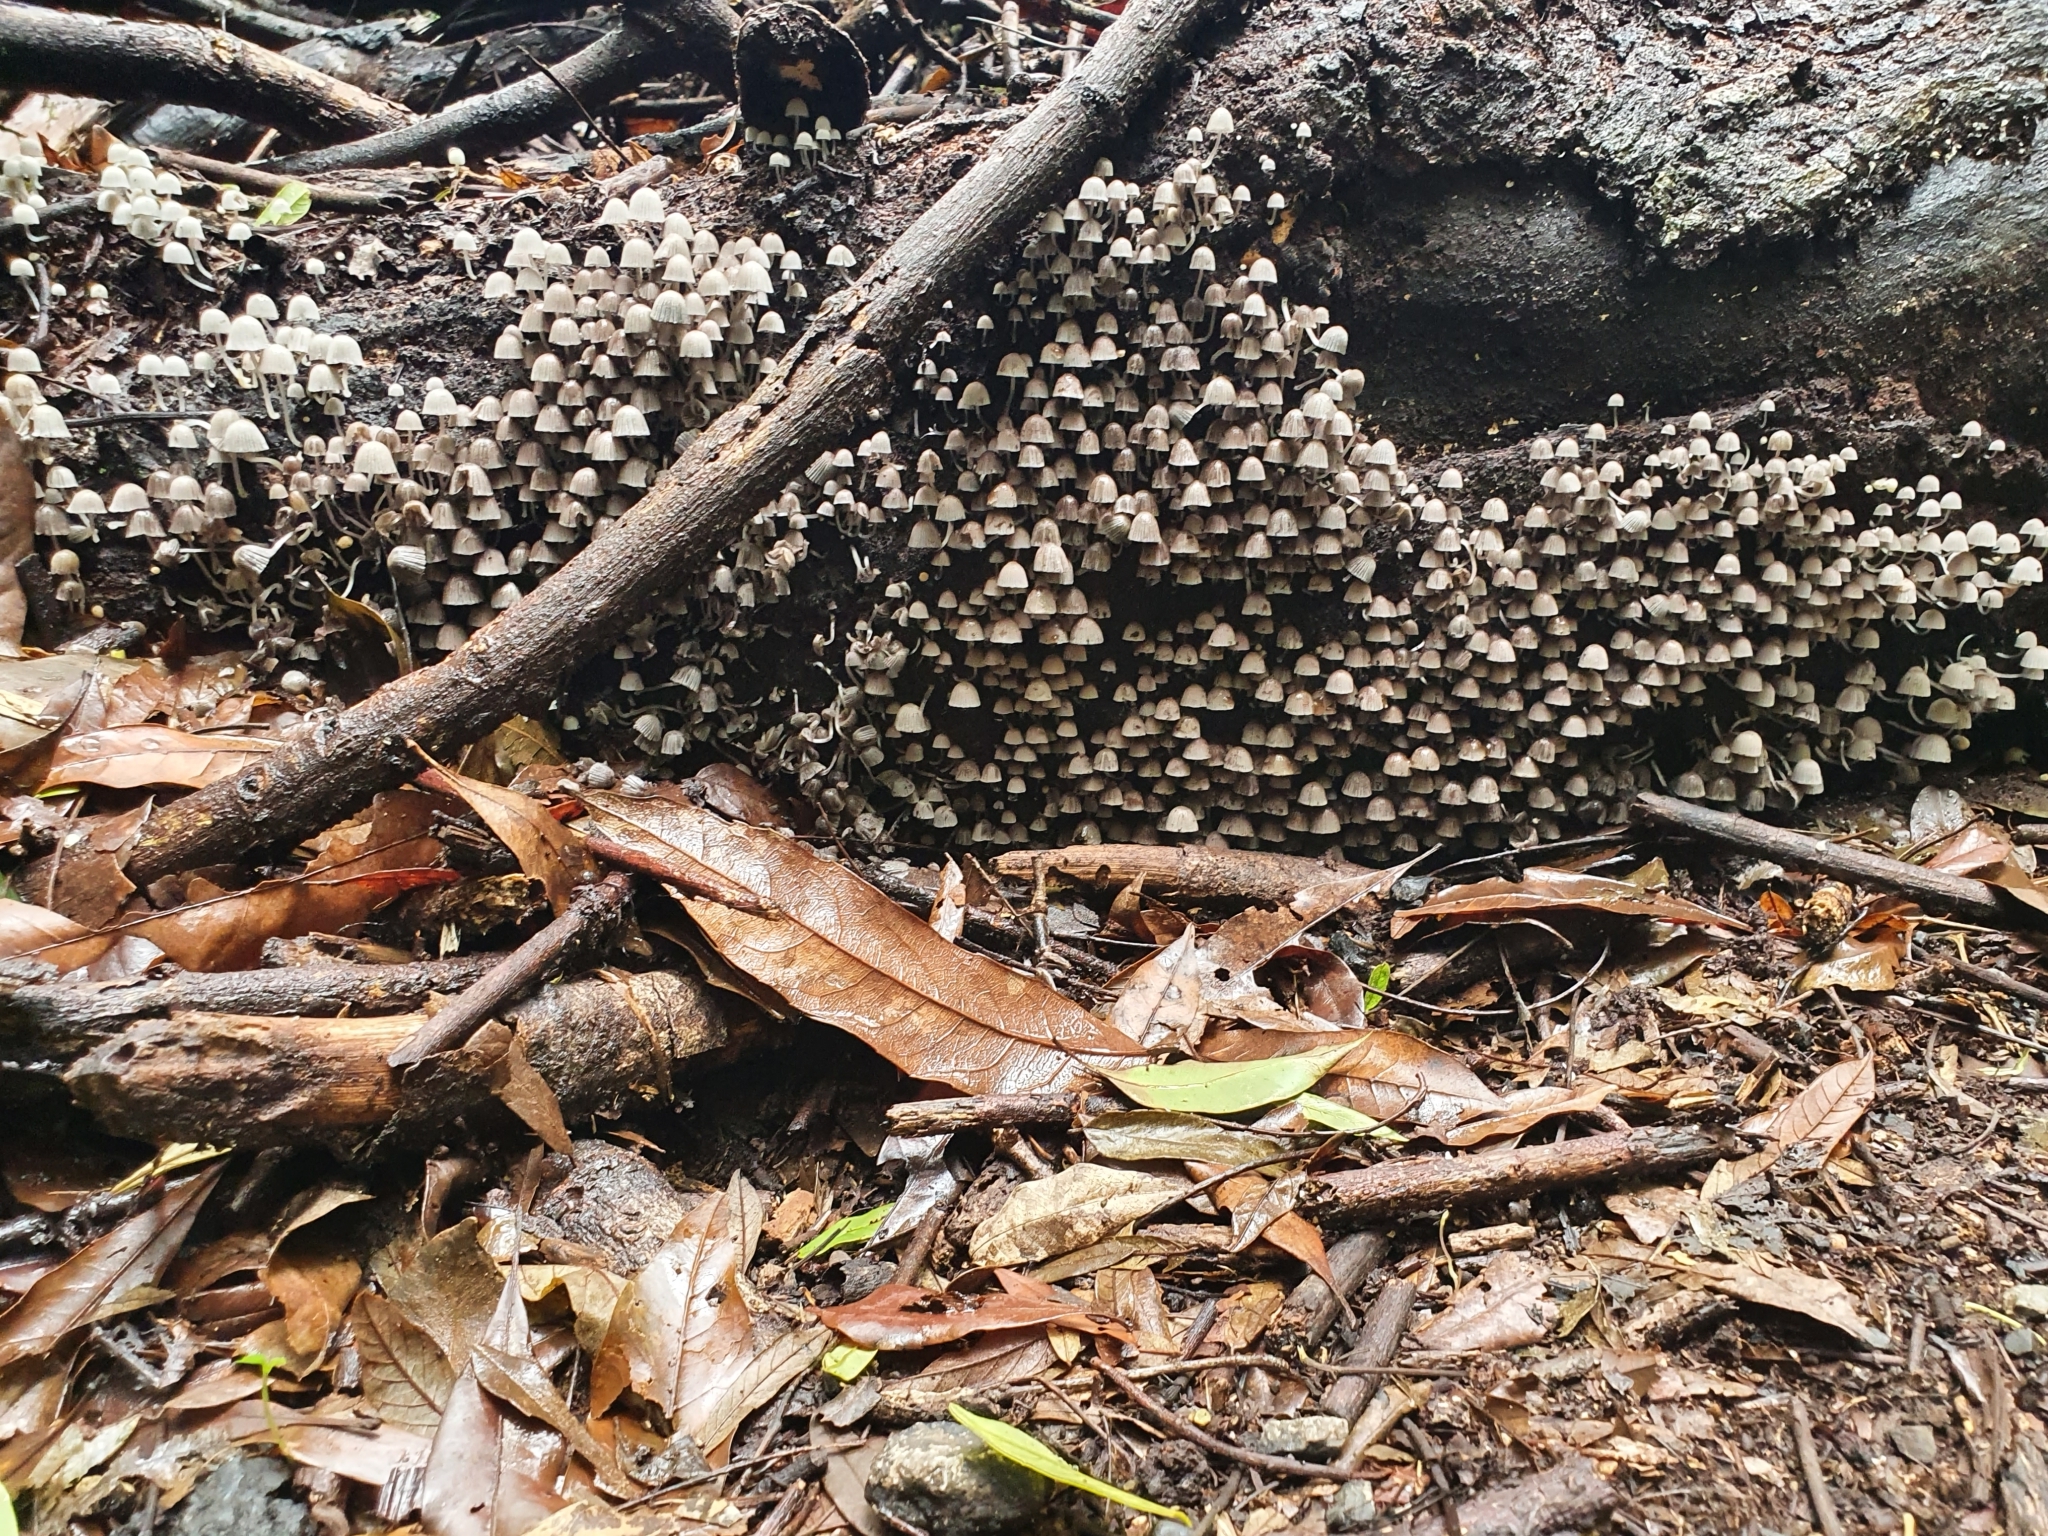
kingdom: Fungi
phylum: Basidiomycota
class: Agaricomycetes
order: Agaricales
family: Psathyrellaceae
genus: Coprinellus
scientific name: Coprinellus disseminatus
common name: Fairies' bonnets
